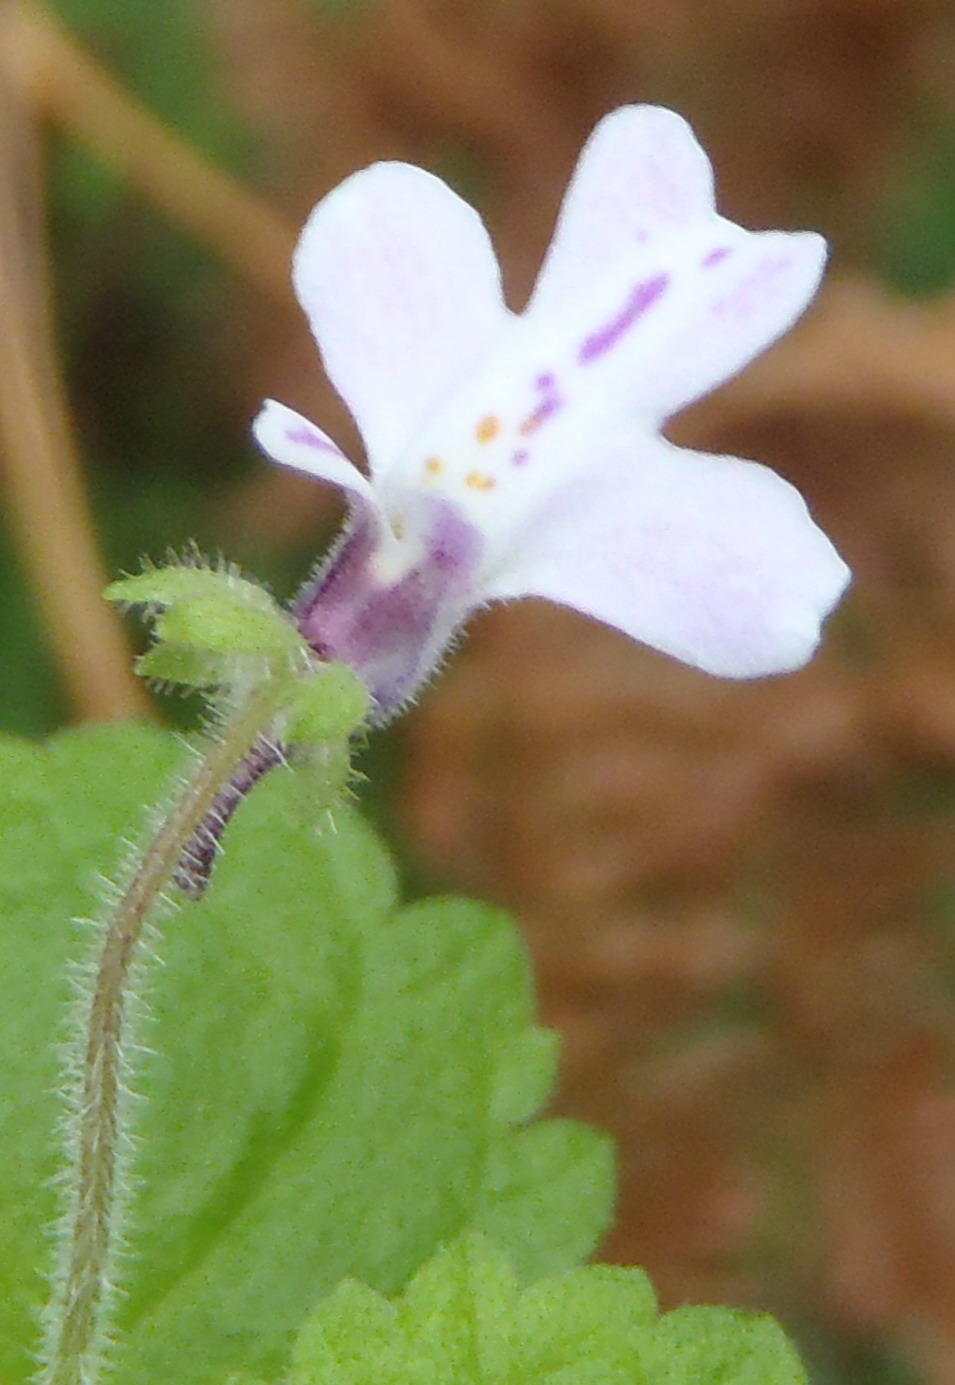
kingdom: Plantae
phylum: Tracheophyta
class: Magnoliopsida
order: Lamiales
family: Scrophulariaceae
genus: Diclis
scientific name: Diclis reptans
